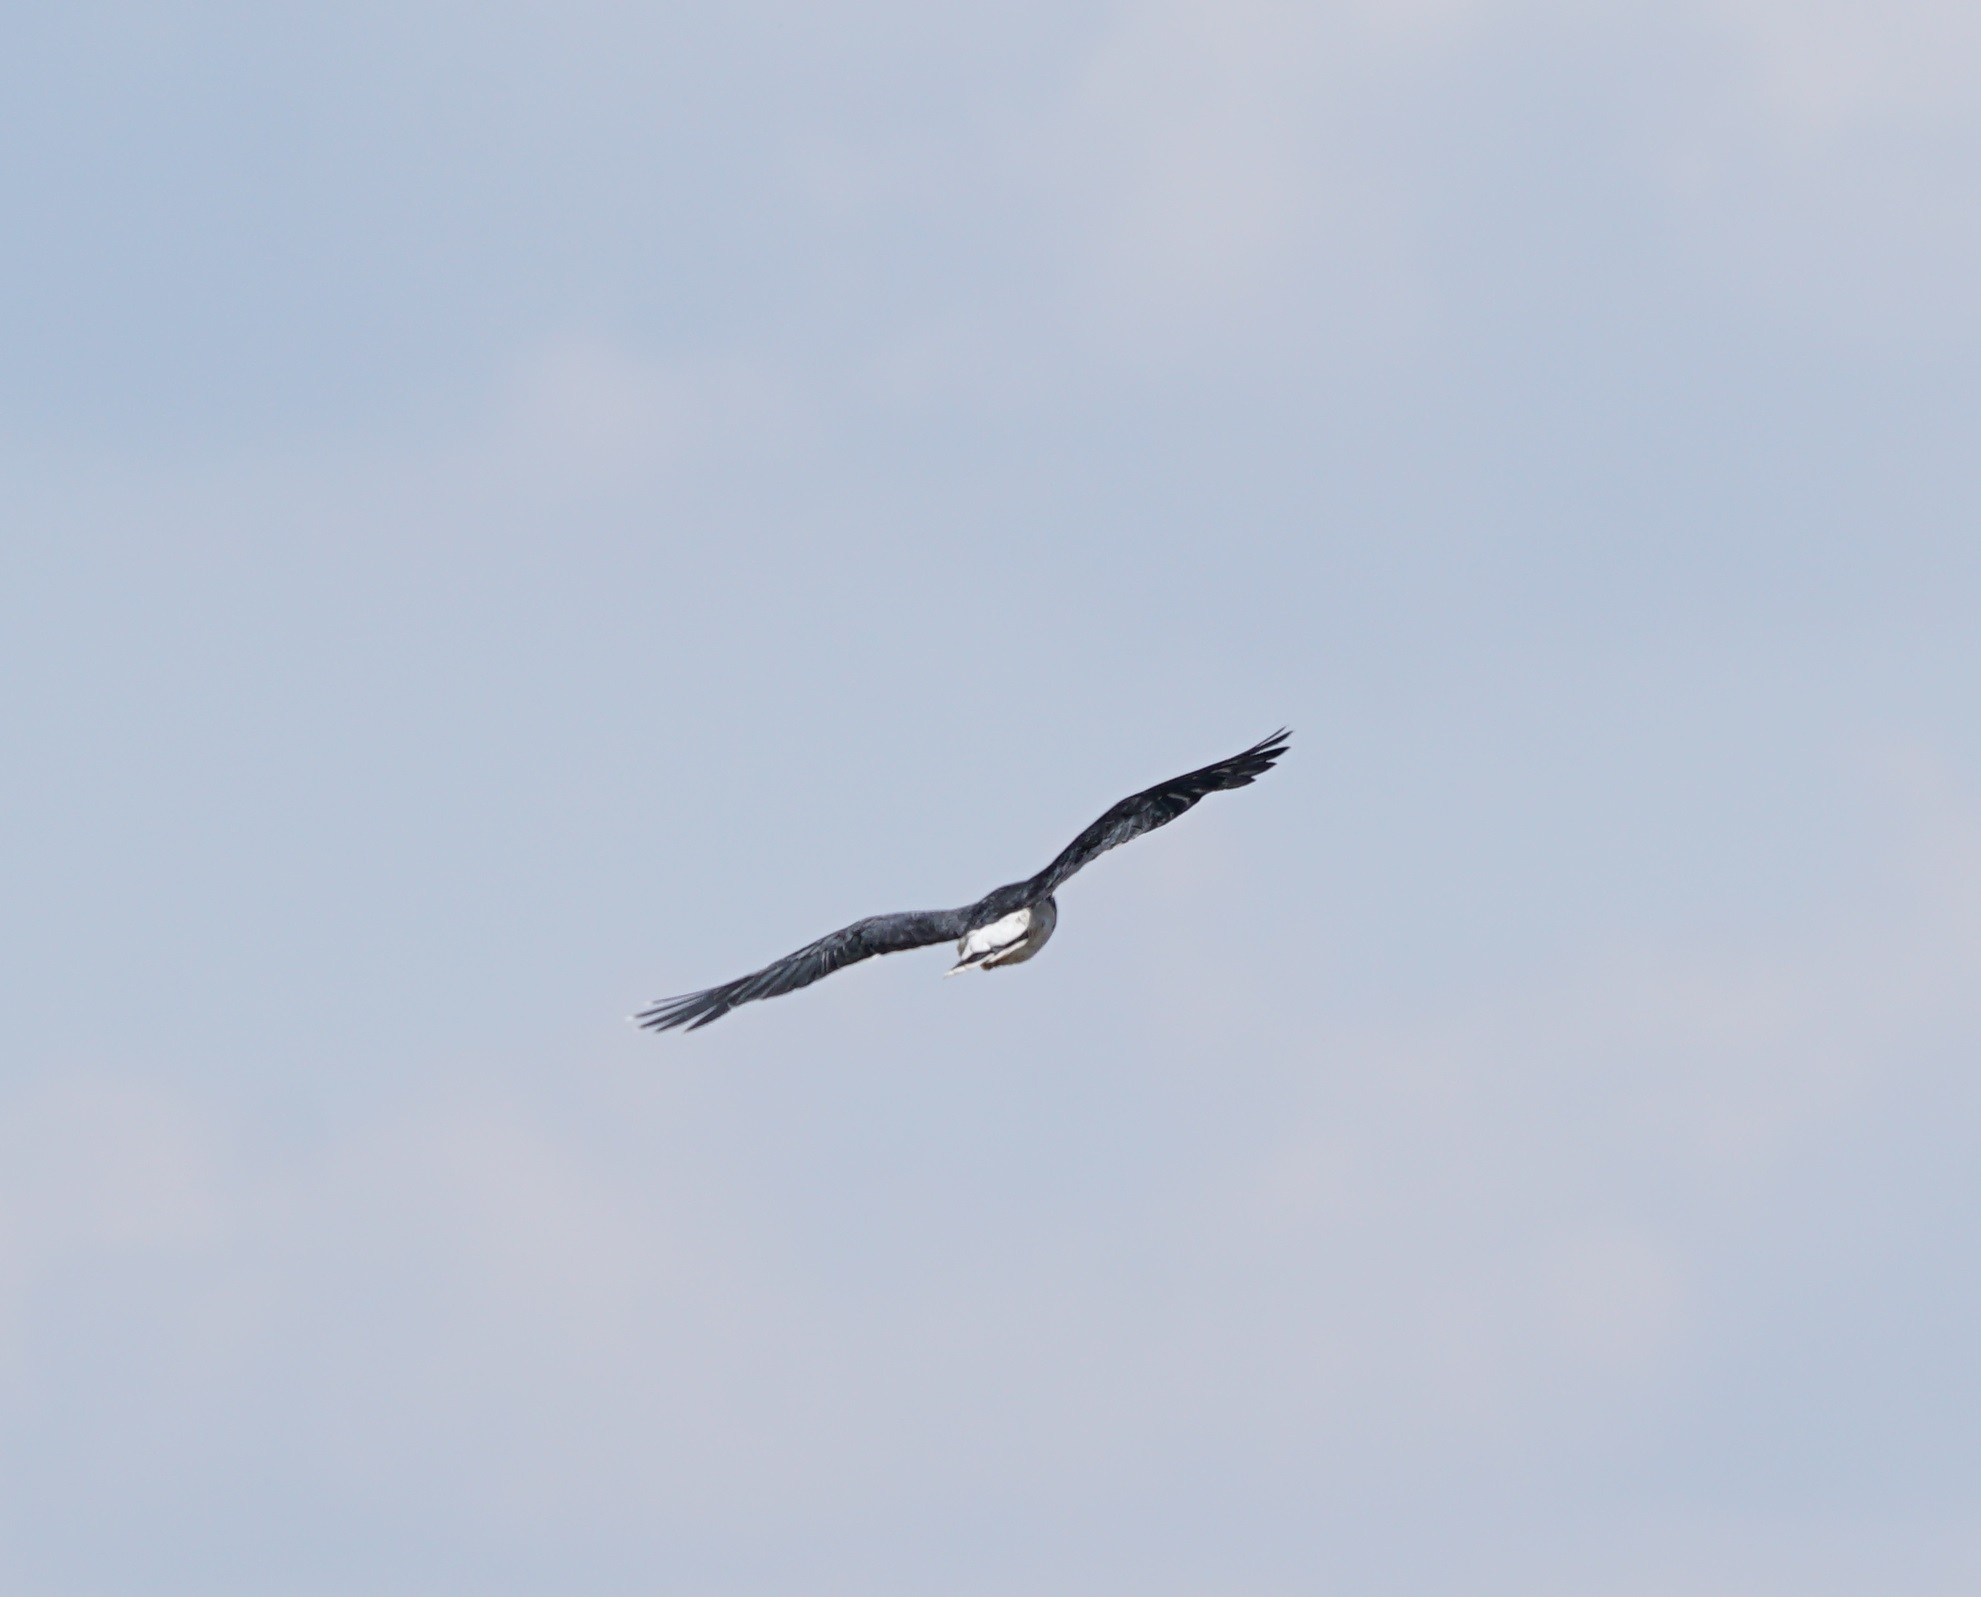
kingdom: Animalia
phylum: Chordata
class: Aves
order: Falconiformes
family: Falconidae
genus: Daptrius
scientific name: Daptrius
